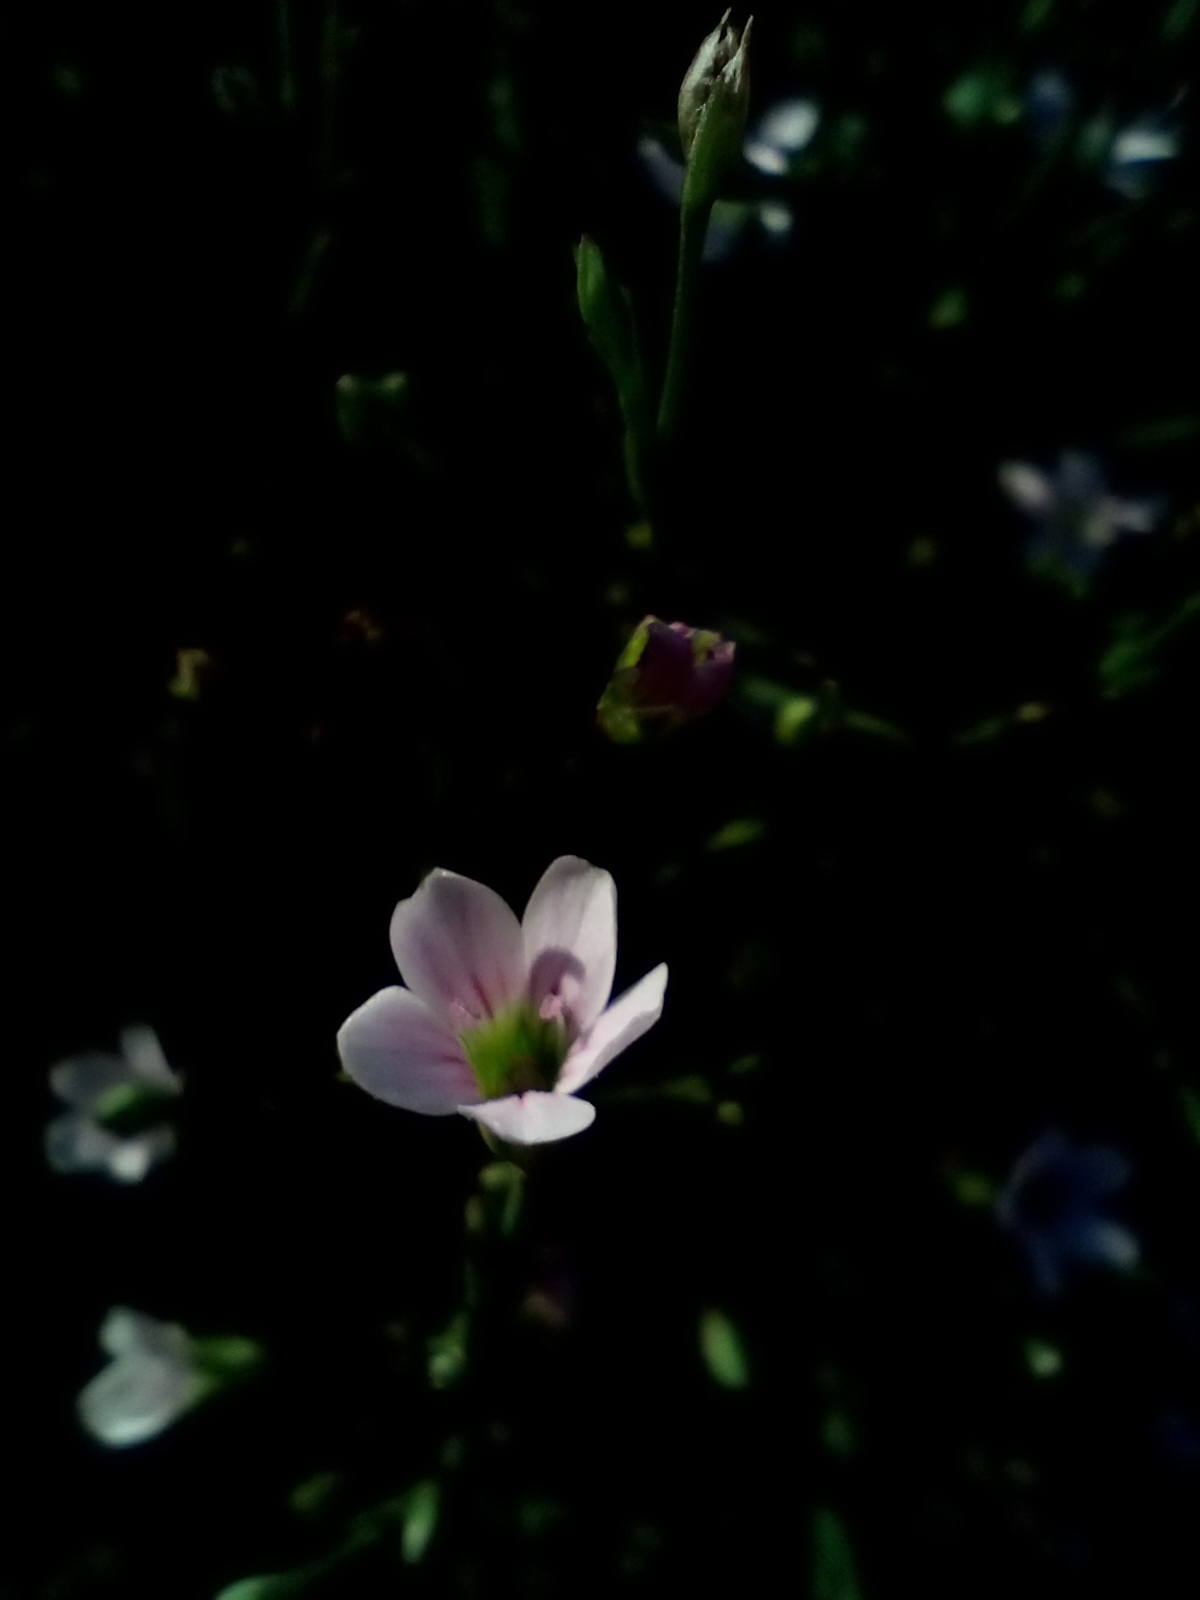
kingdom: Plantae
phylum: Tracheophyta
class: Magnoliopsida
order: Caryophyllales
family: Caryophyllaceae
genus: Psammophiliella
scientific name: Psammophiliella muralis
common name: Cushion baby's-breath
